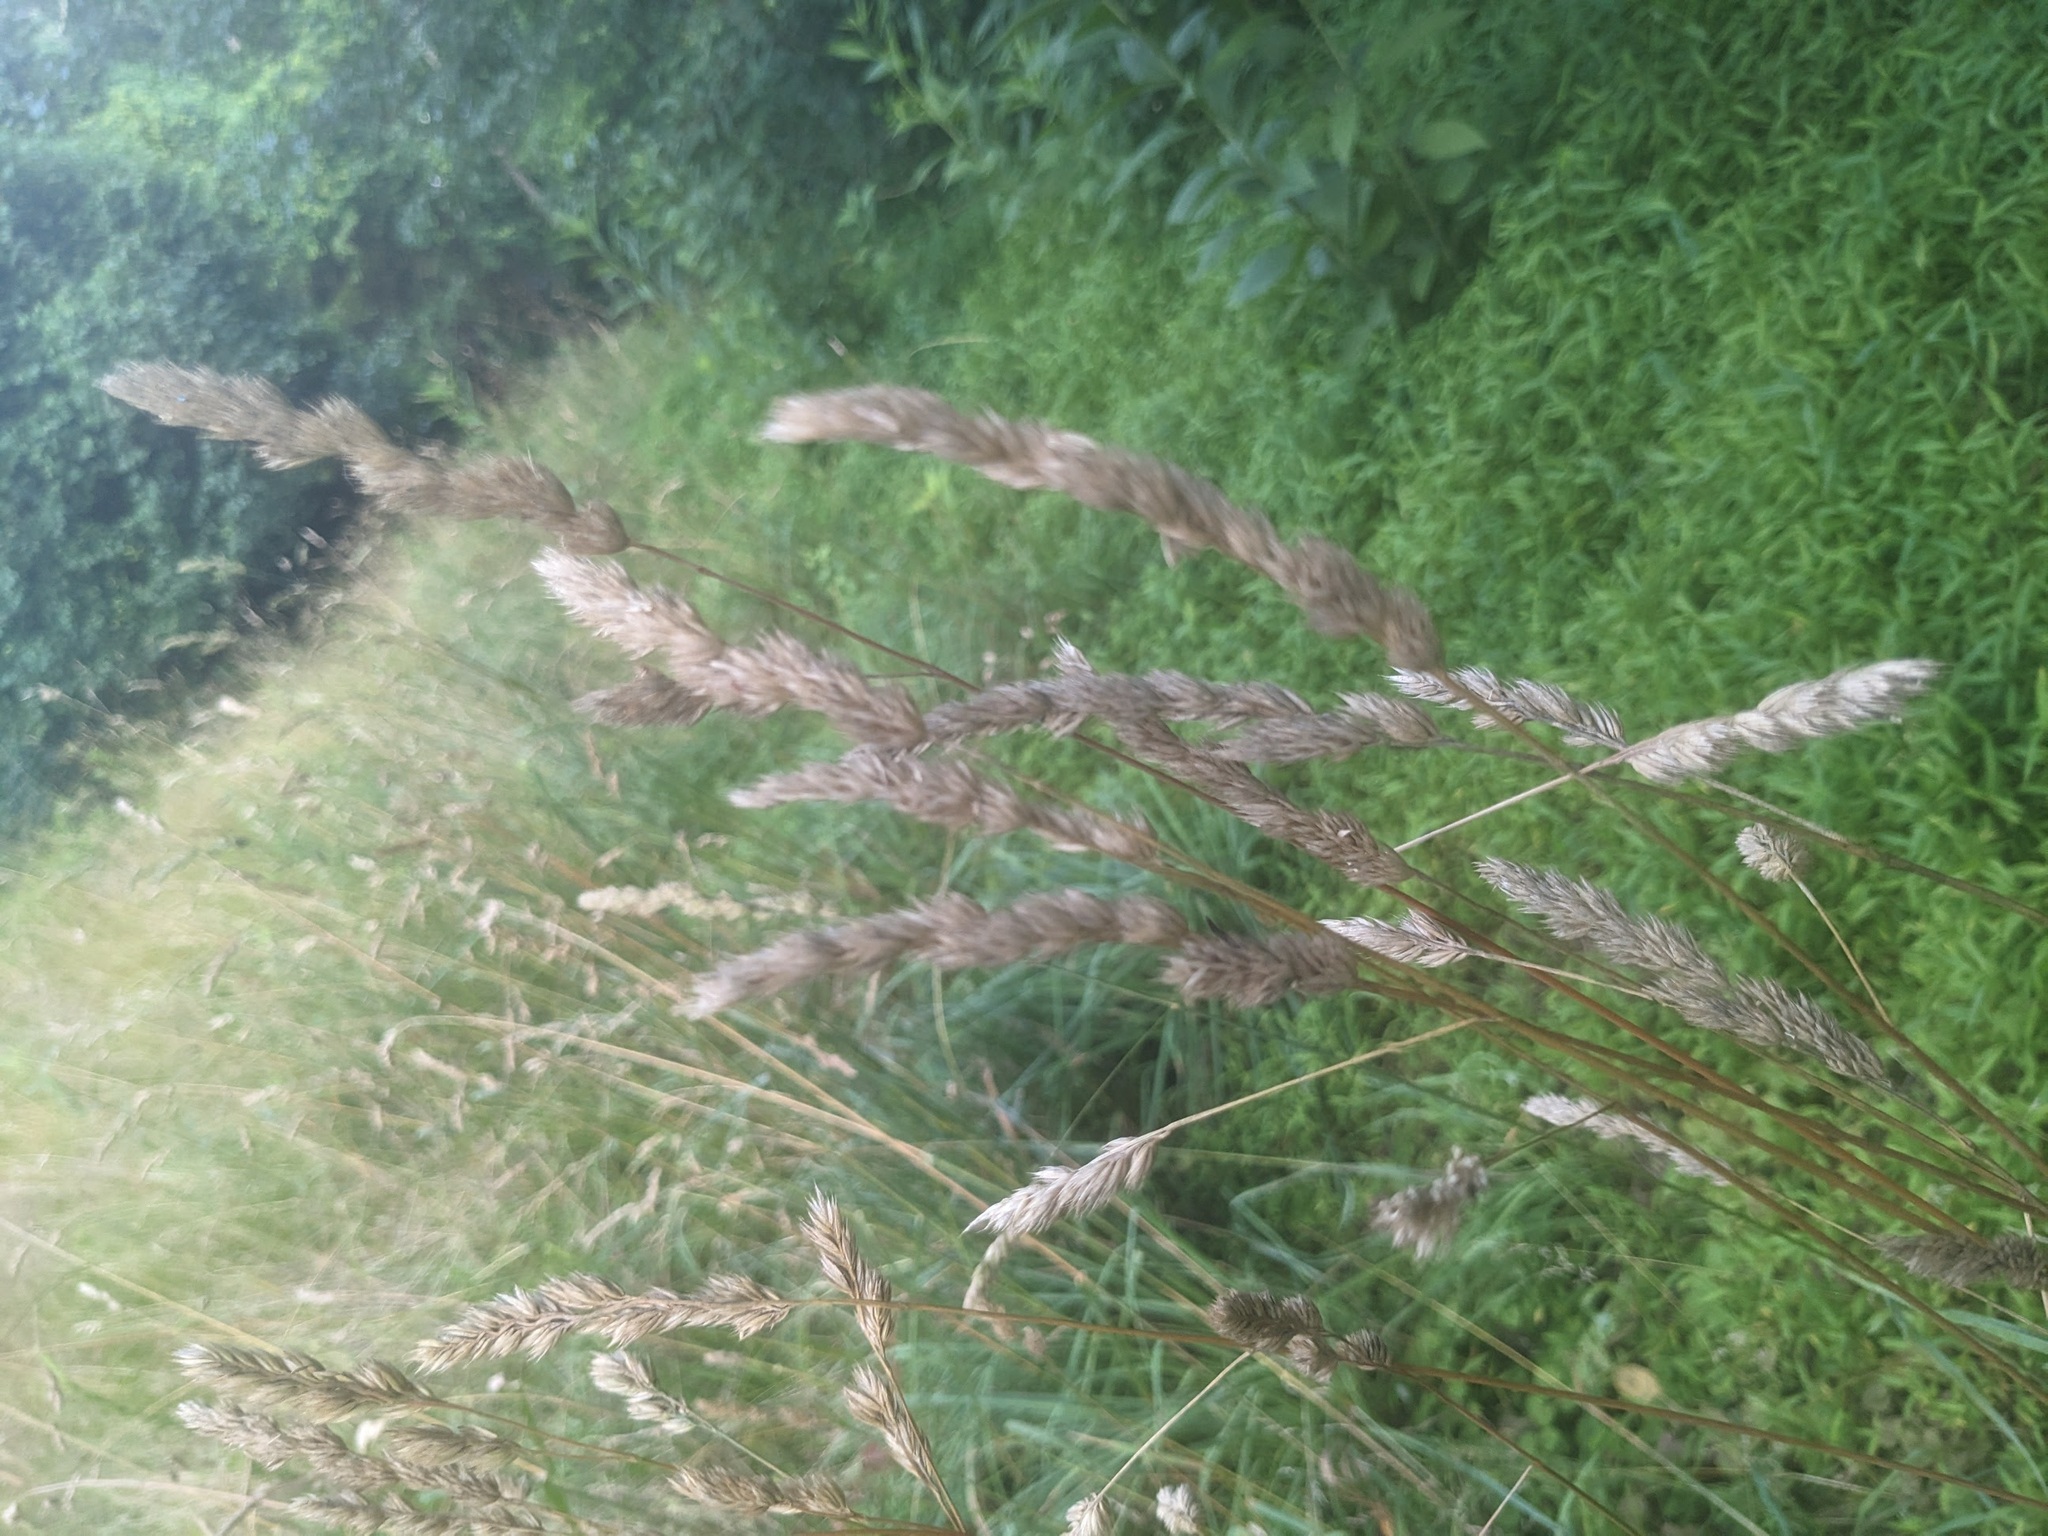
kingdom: Plantae
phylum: Tracheophyta
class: Liliopsida
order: Poales
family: Poaceae
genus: Dactylis
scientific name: Dactylis glomerata
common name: Orchardgrass
